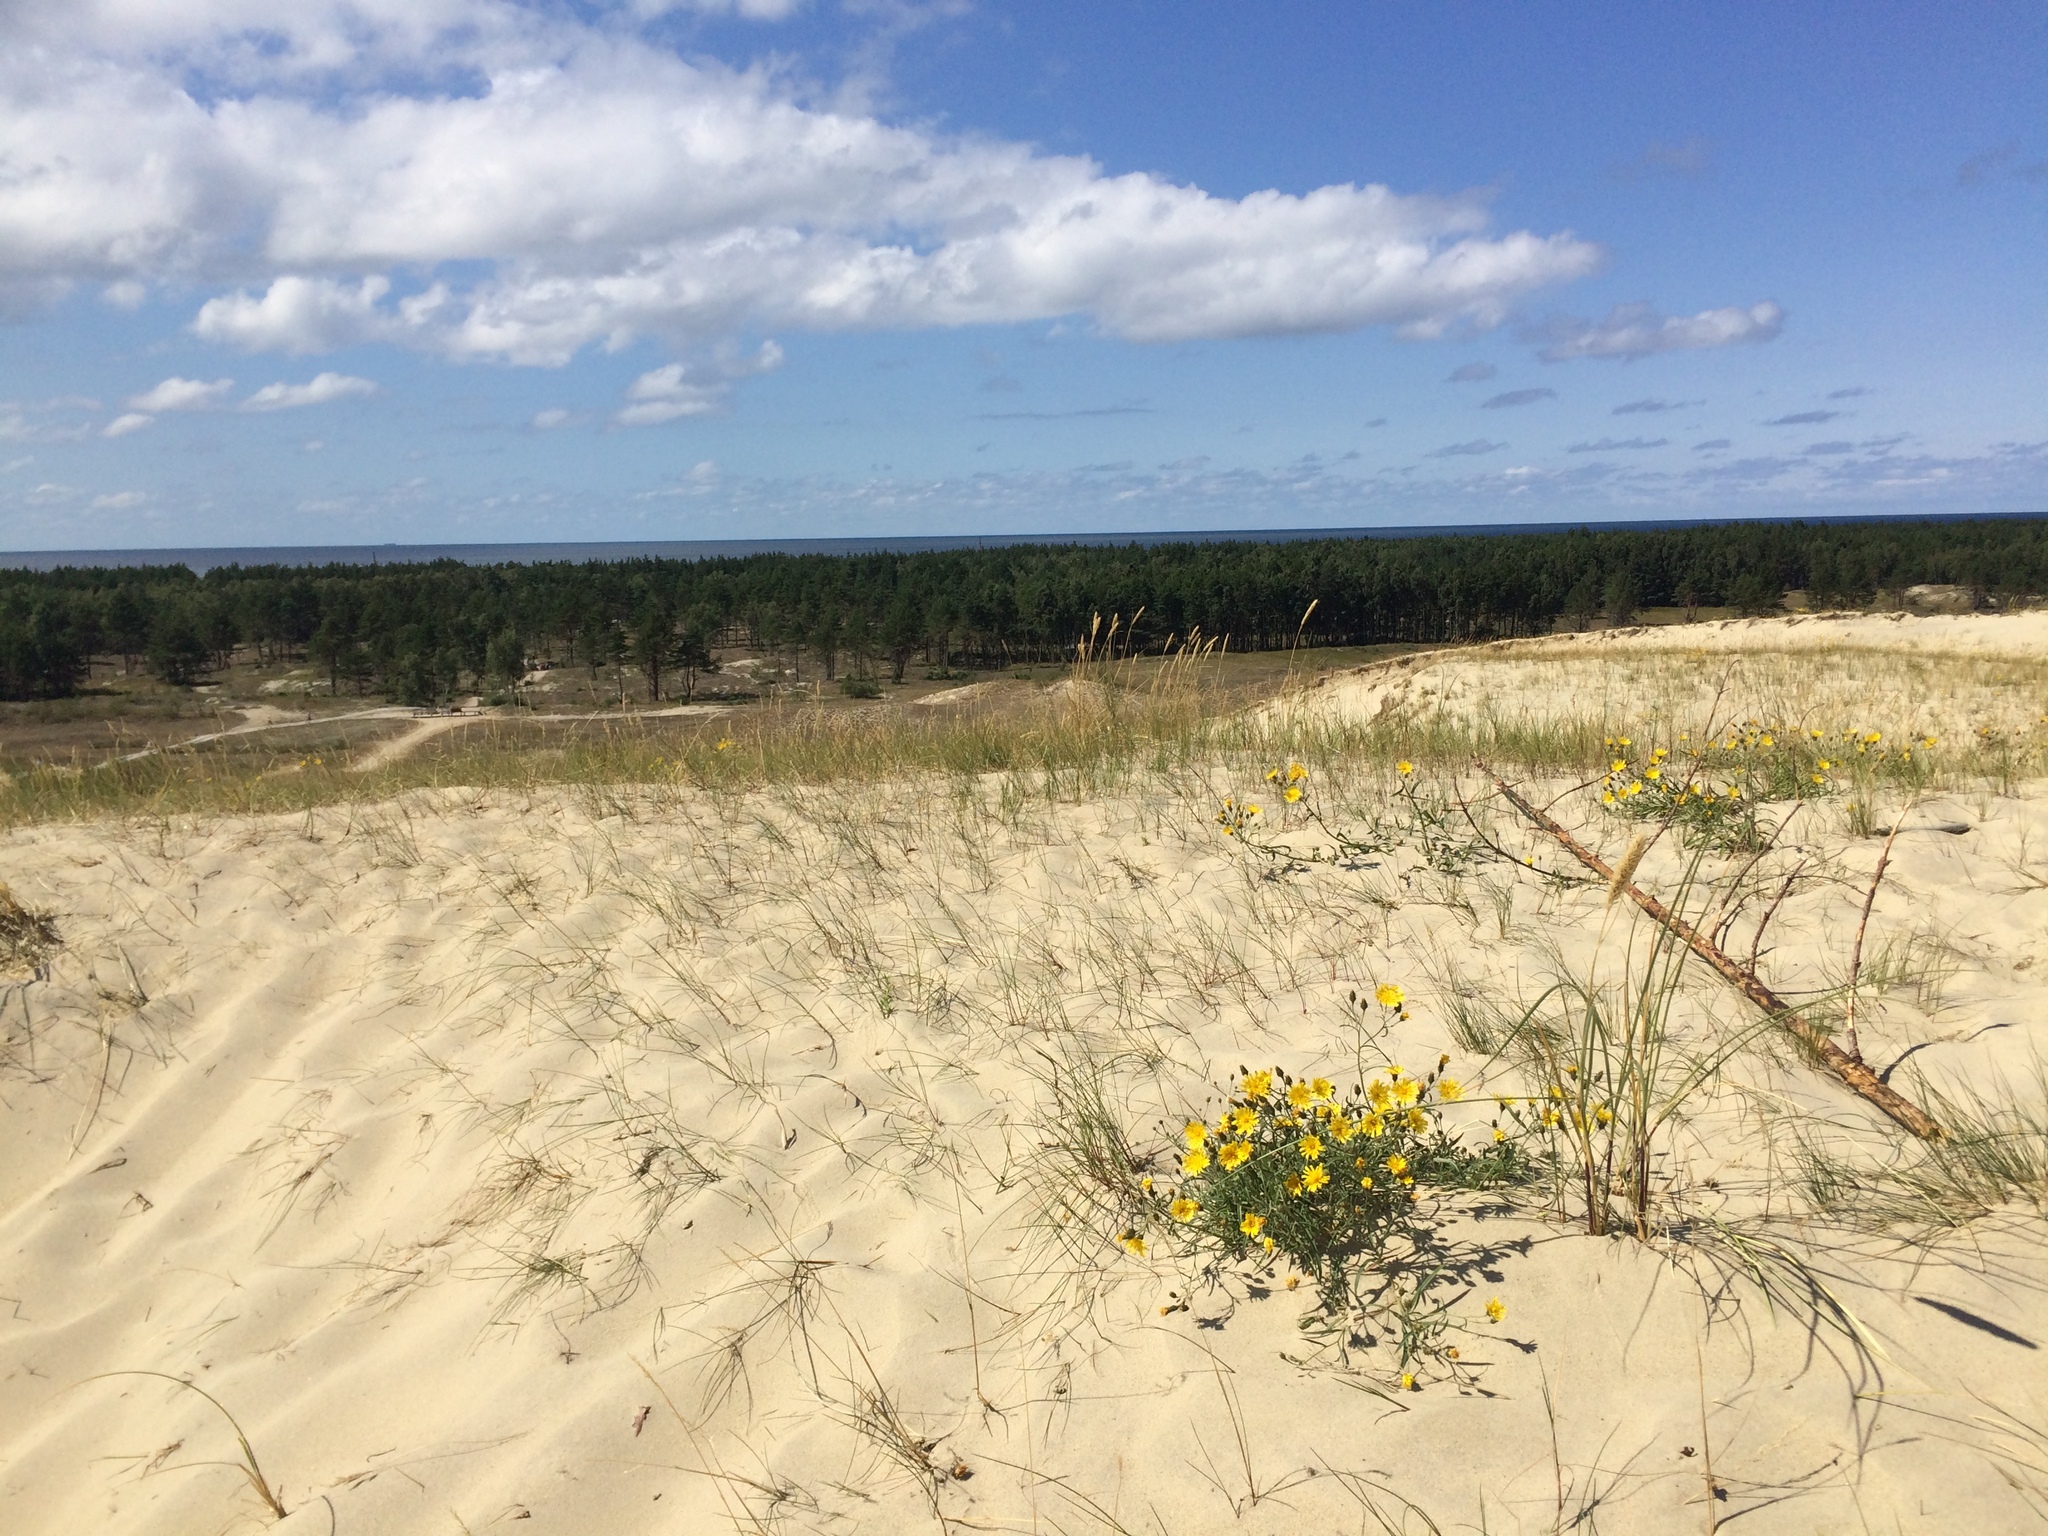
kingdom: Plantae
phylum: Tracheophyta
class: Magnoliopsida
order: Asterales
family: Asteraceae
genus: Hieracium
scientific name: Hieracium umbellatum
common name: Northern hawkweed
